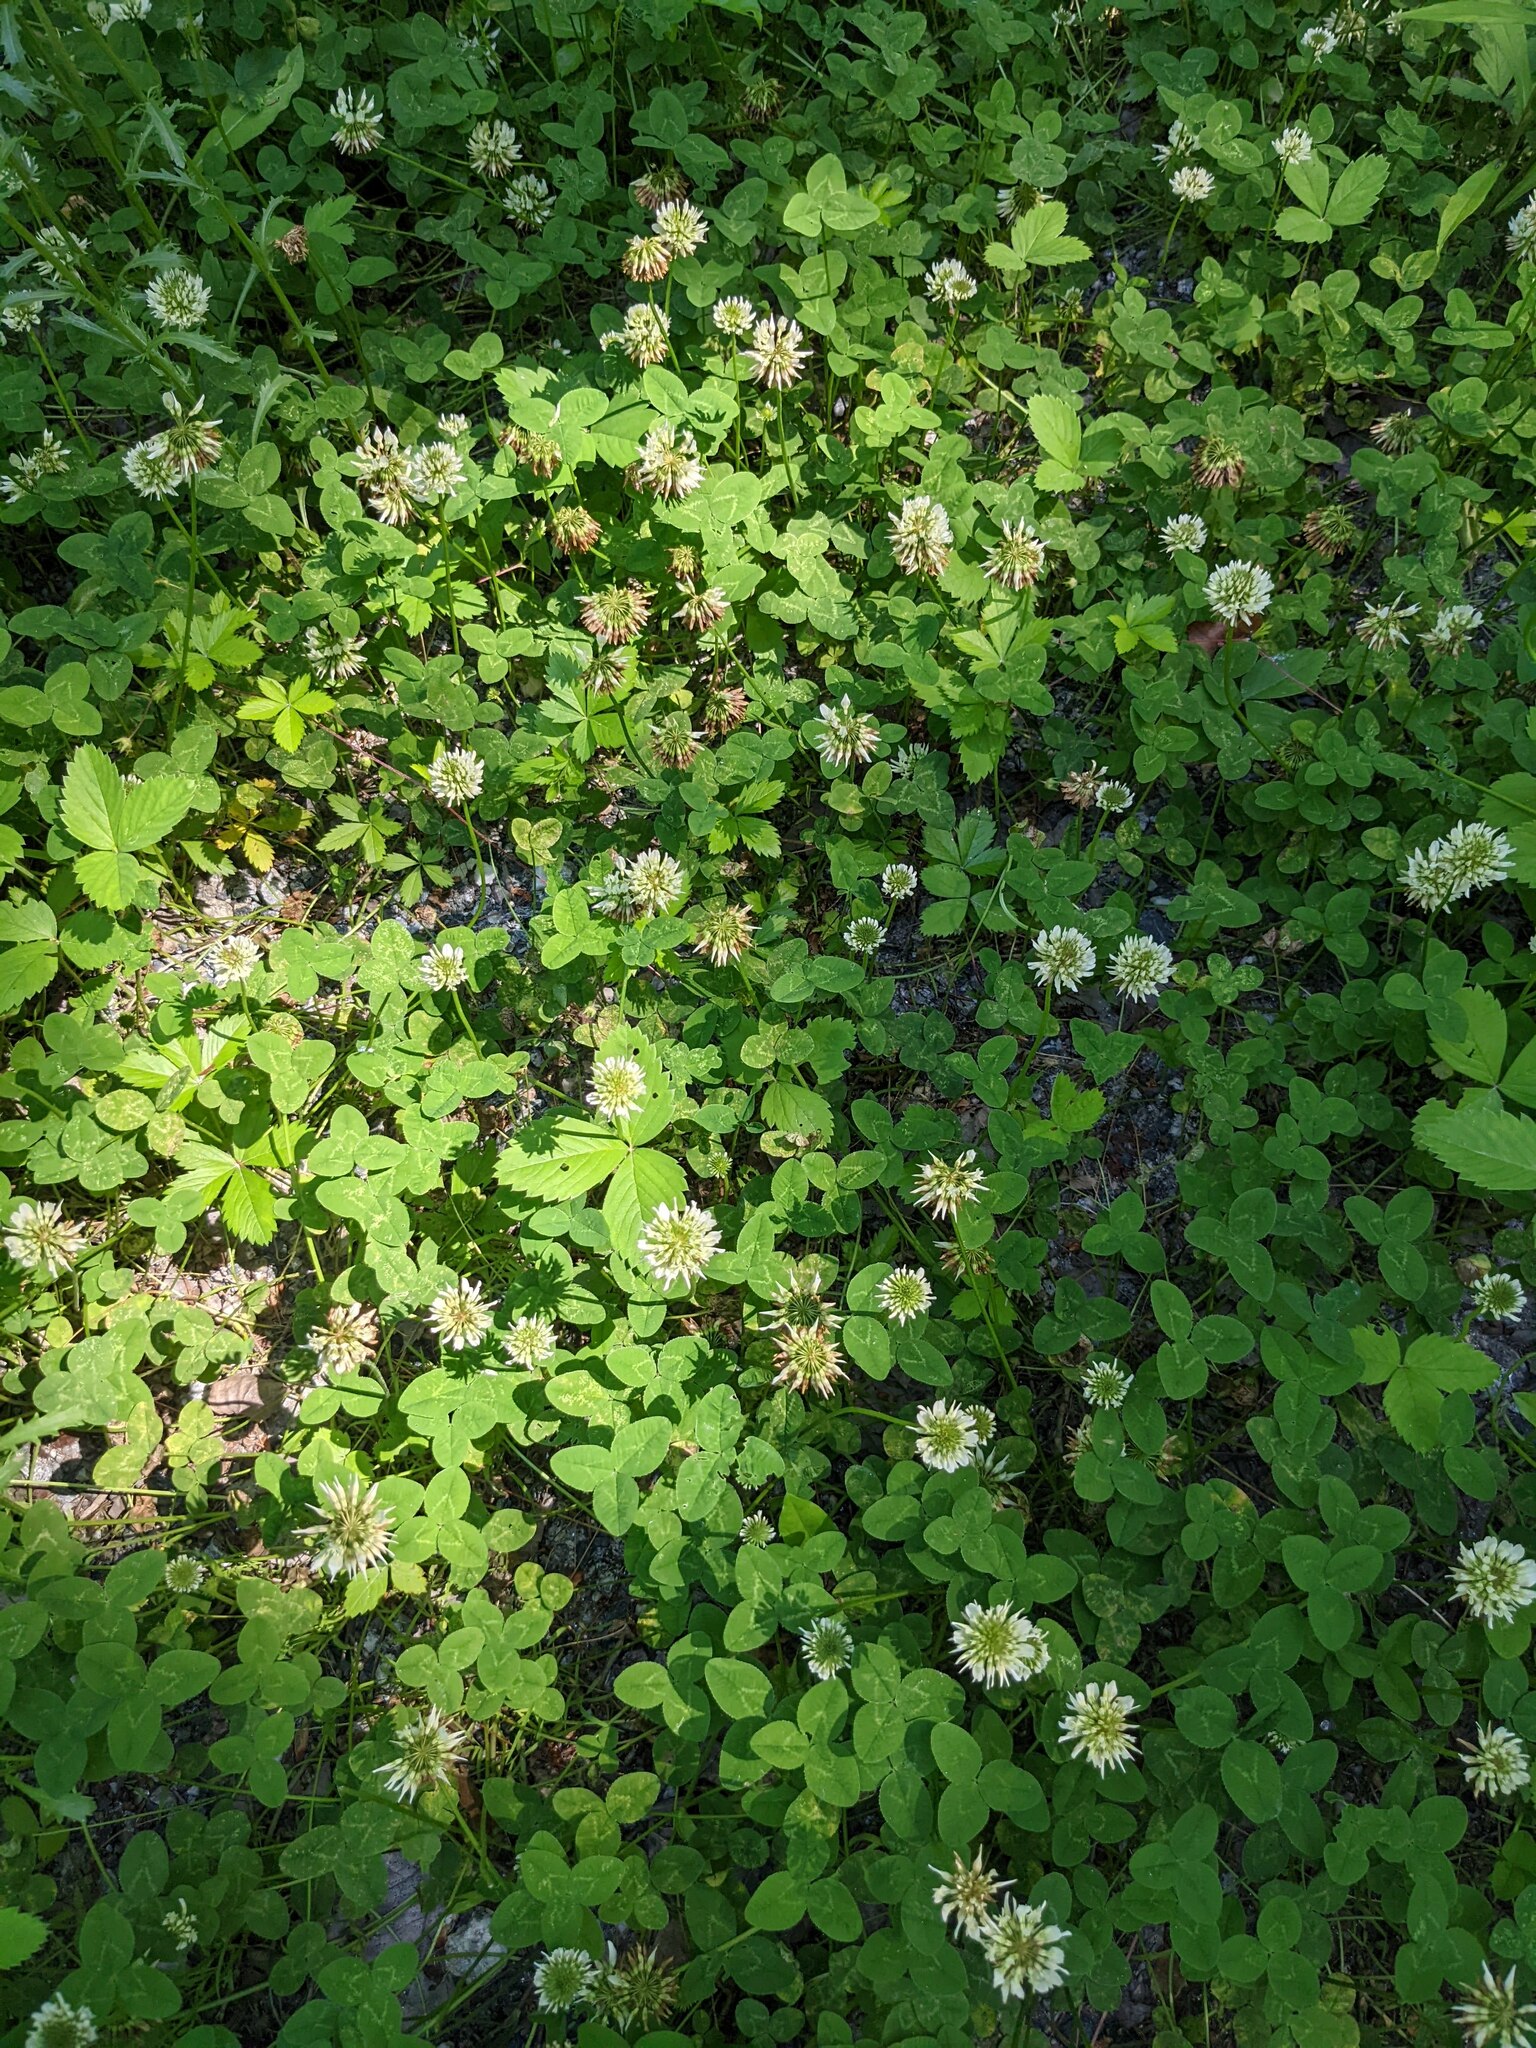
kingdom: Plantae
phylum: Tracheophyta
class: Magnoliopsida
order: Fabales
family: Fabaceae
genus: Trifolium
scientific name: Trifolium repens
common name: White clover
